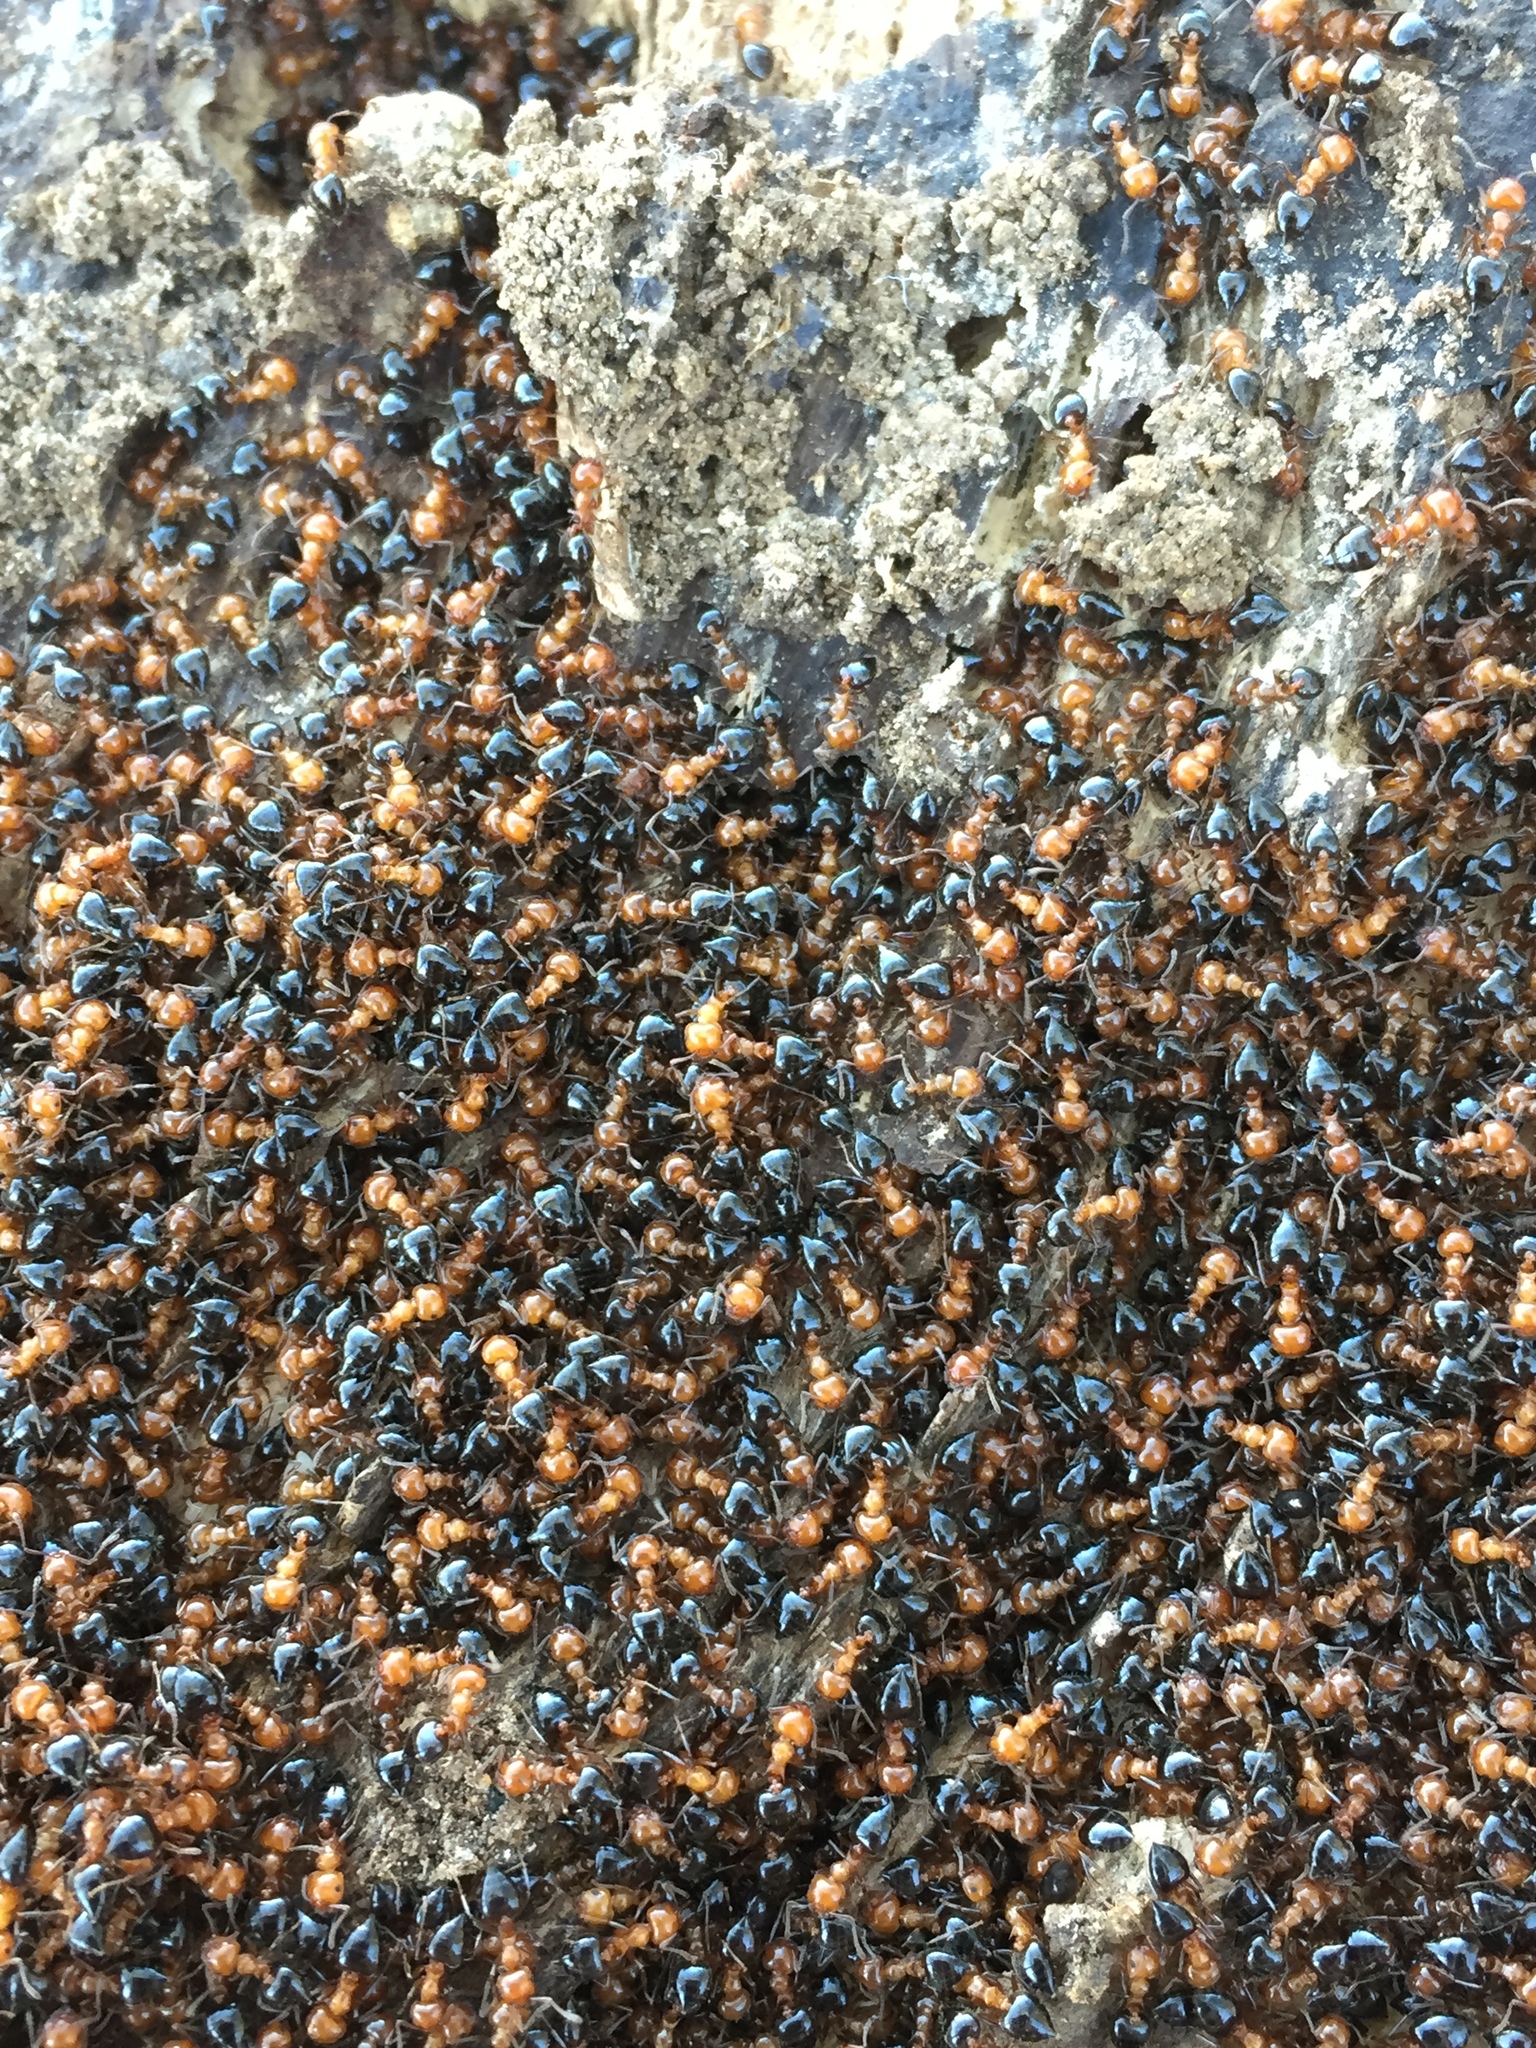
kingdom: Animalia
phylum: Arthropoda
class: Insecta
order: Hymenoptera
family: Formicidae
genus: Crematogaster
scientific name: Crematogaster laeviuscula
